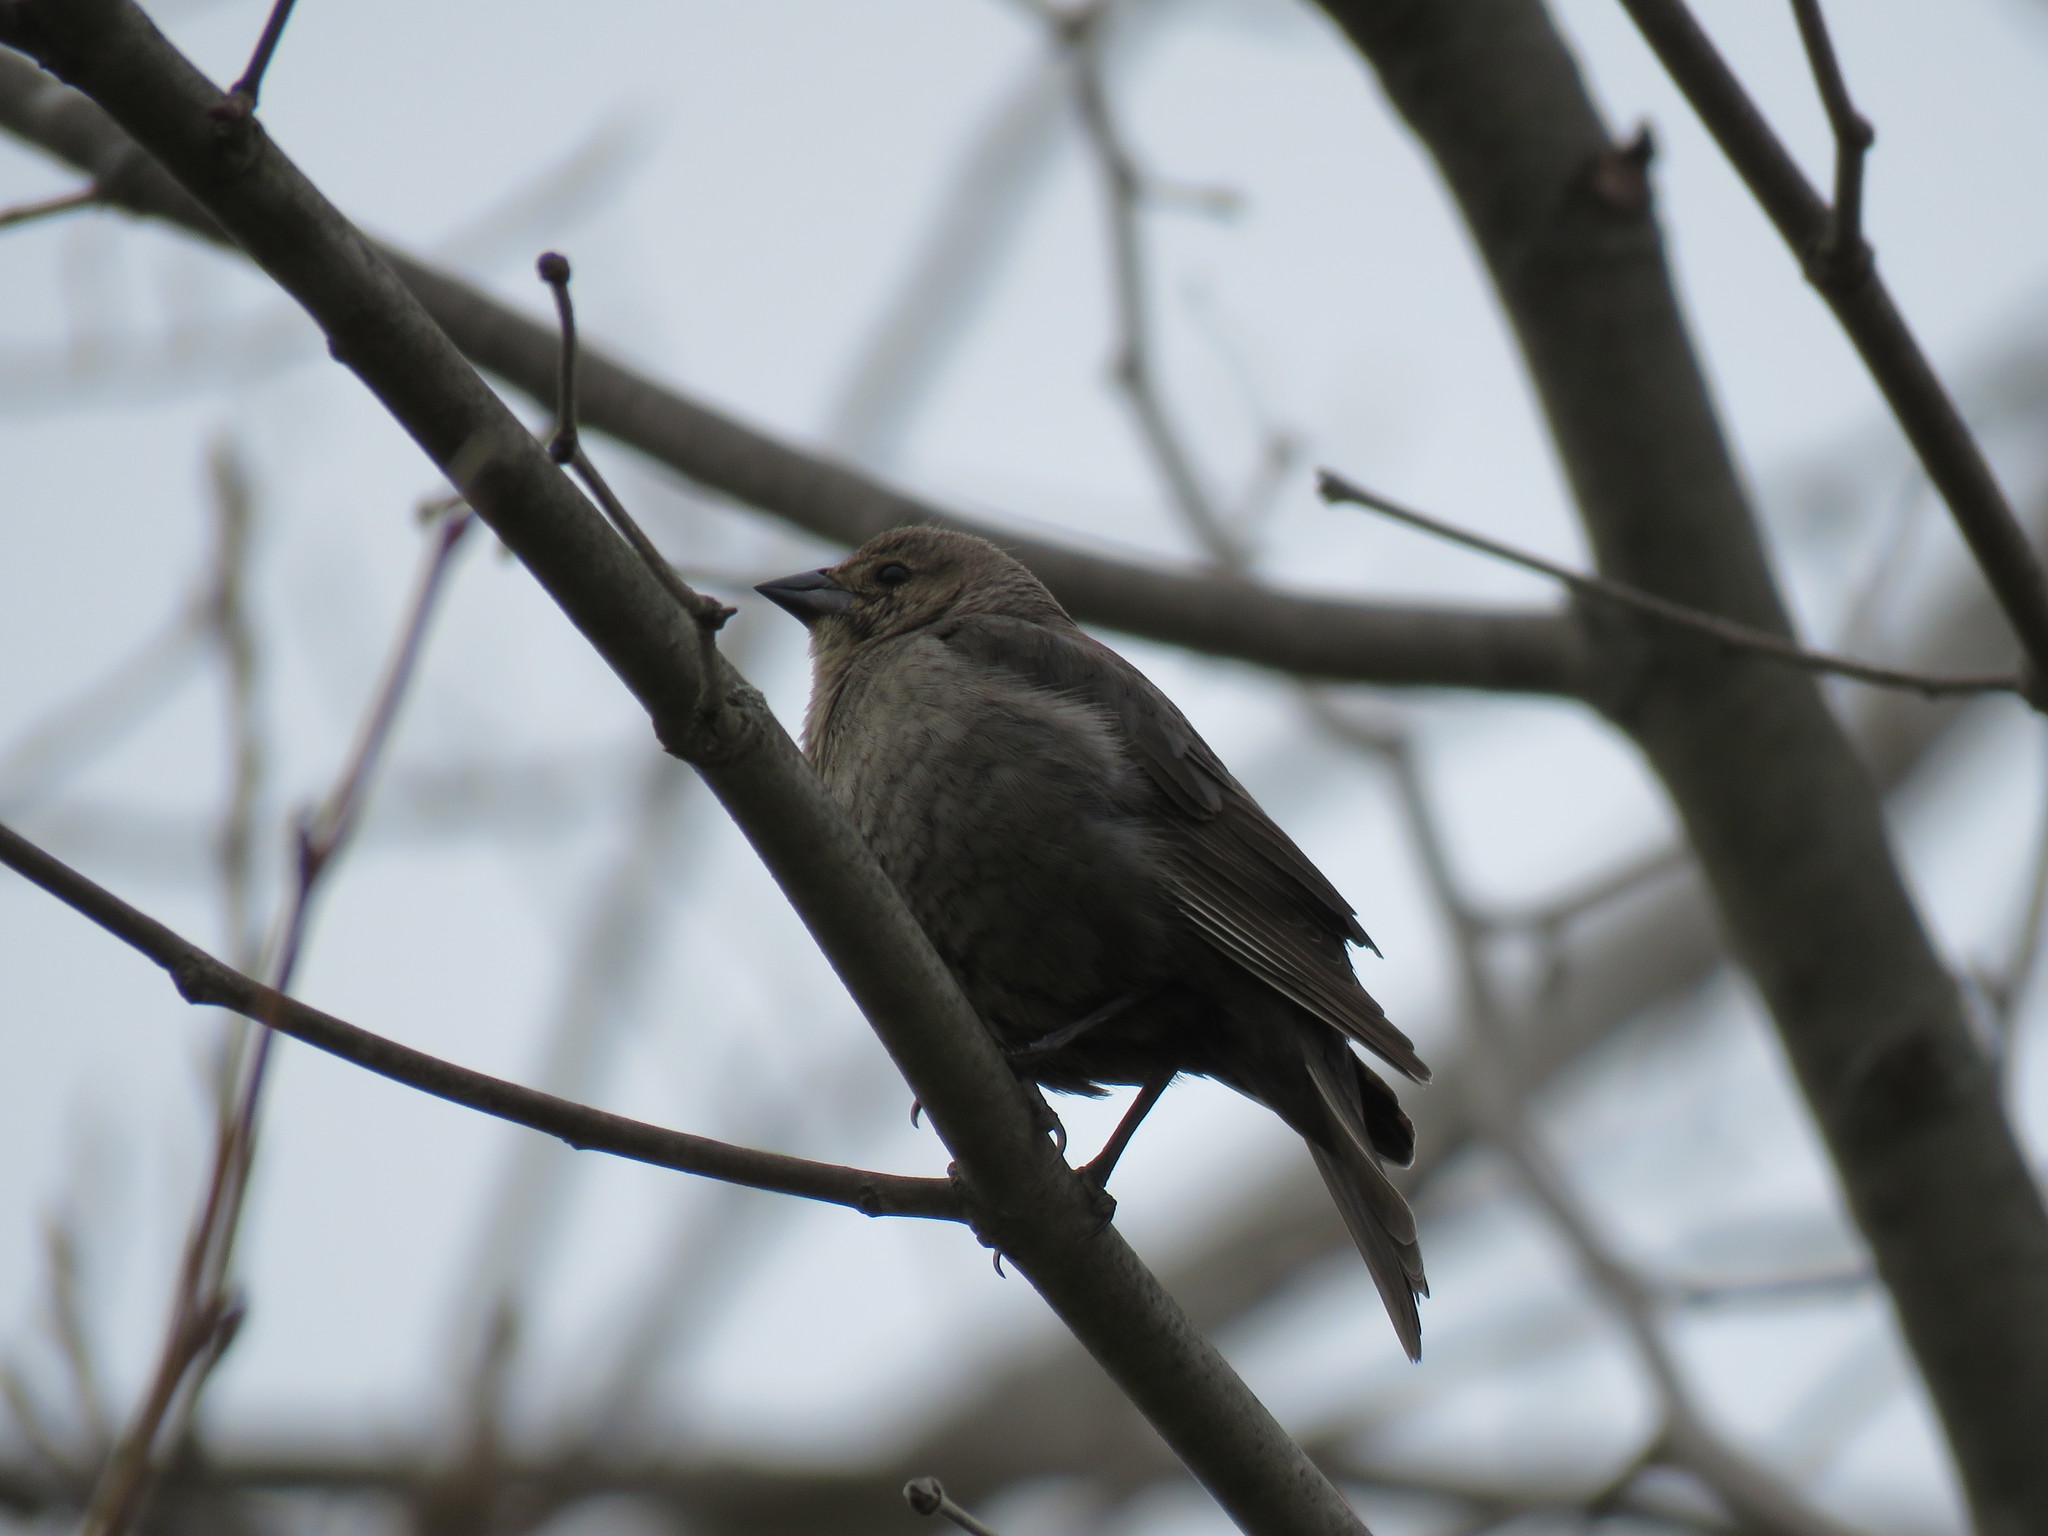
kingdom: Animalia
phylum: Chordata
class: Aves
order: Passeriformes
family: Icteridae
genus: Molothrus
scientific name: Molothrus ater
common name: Brown-headed cowbird
